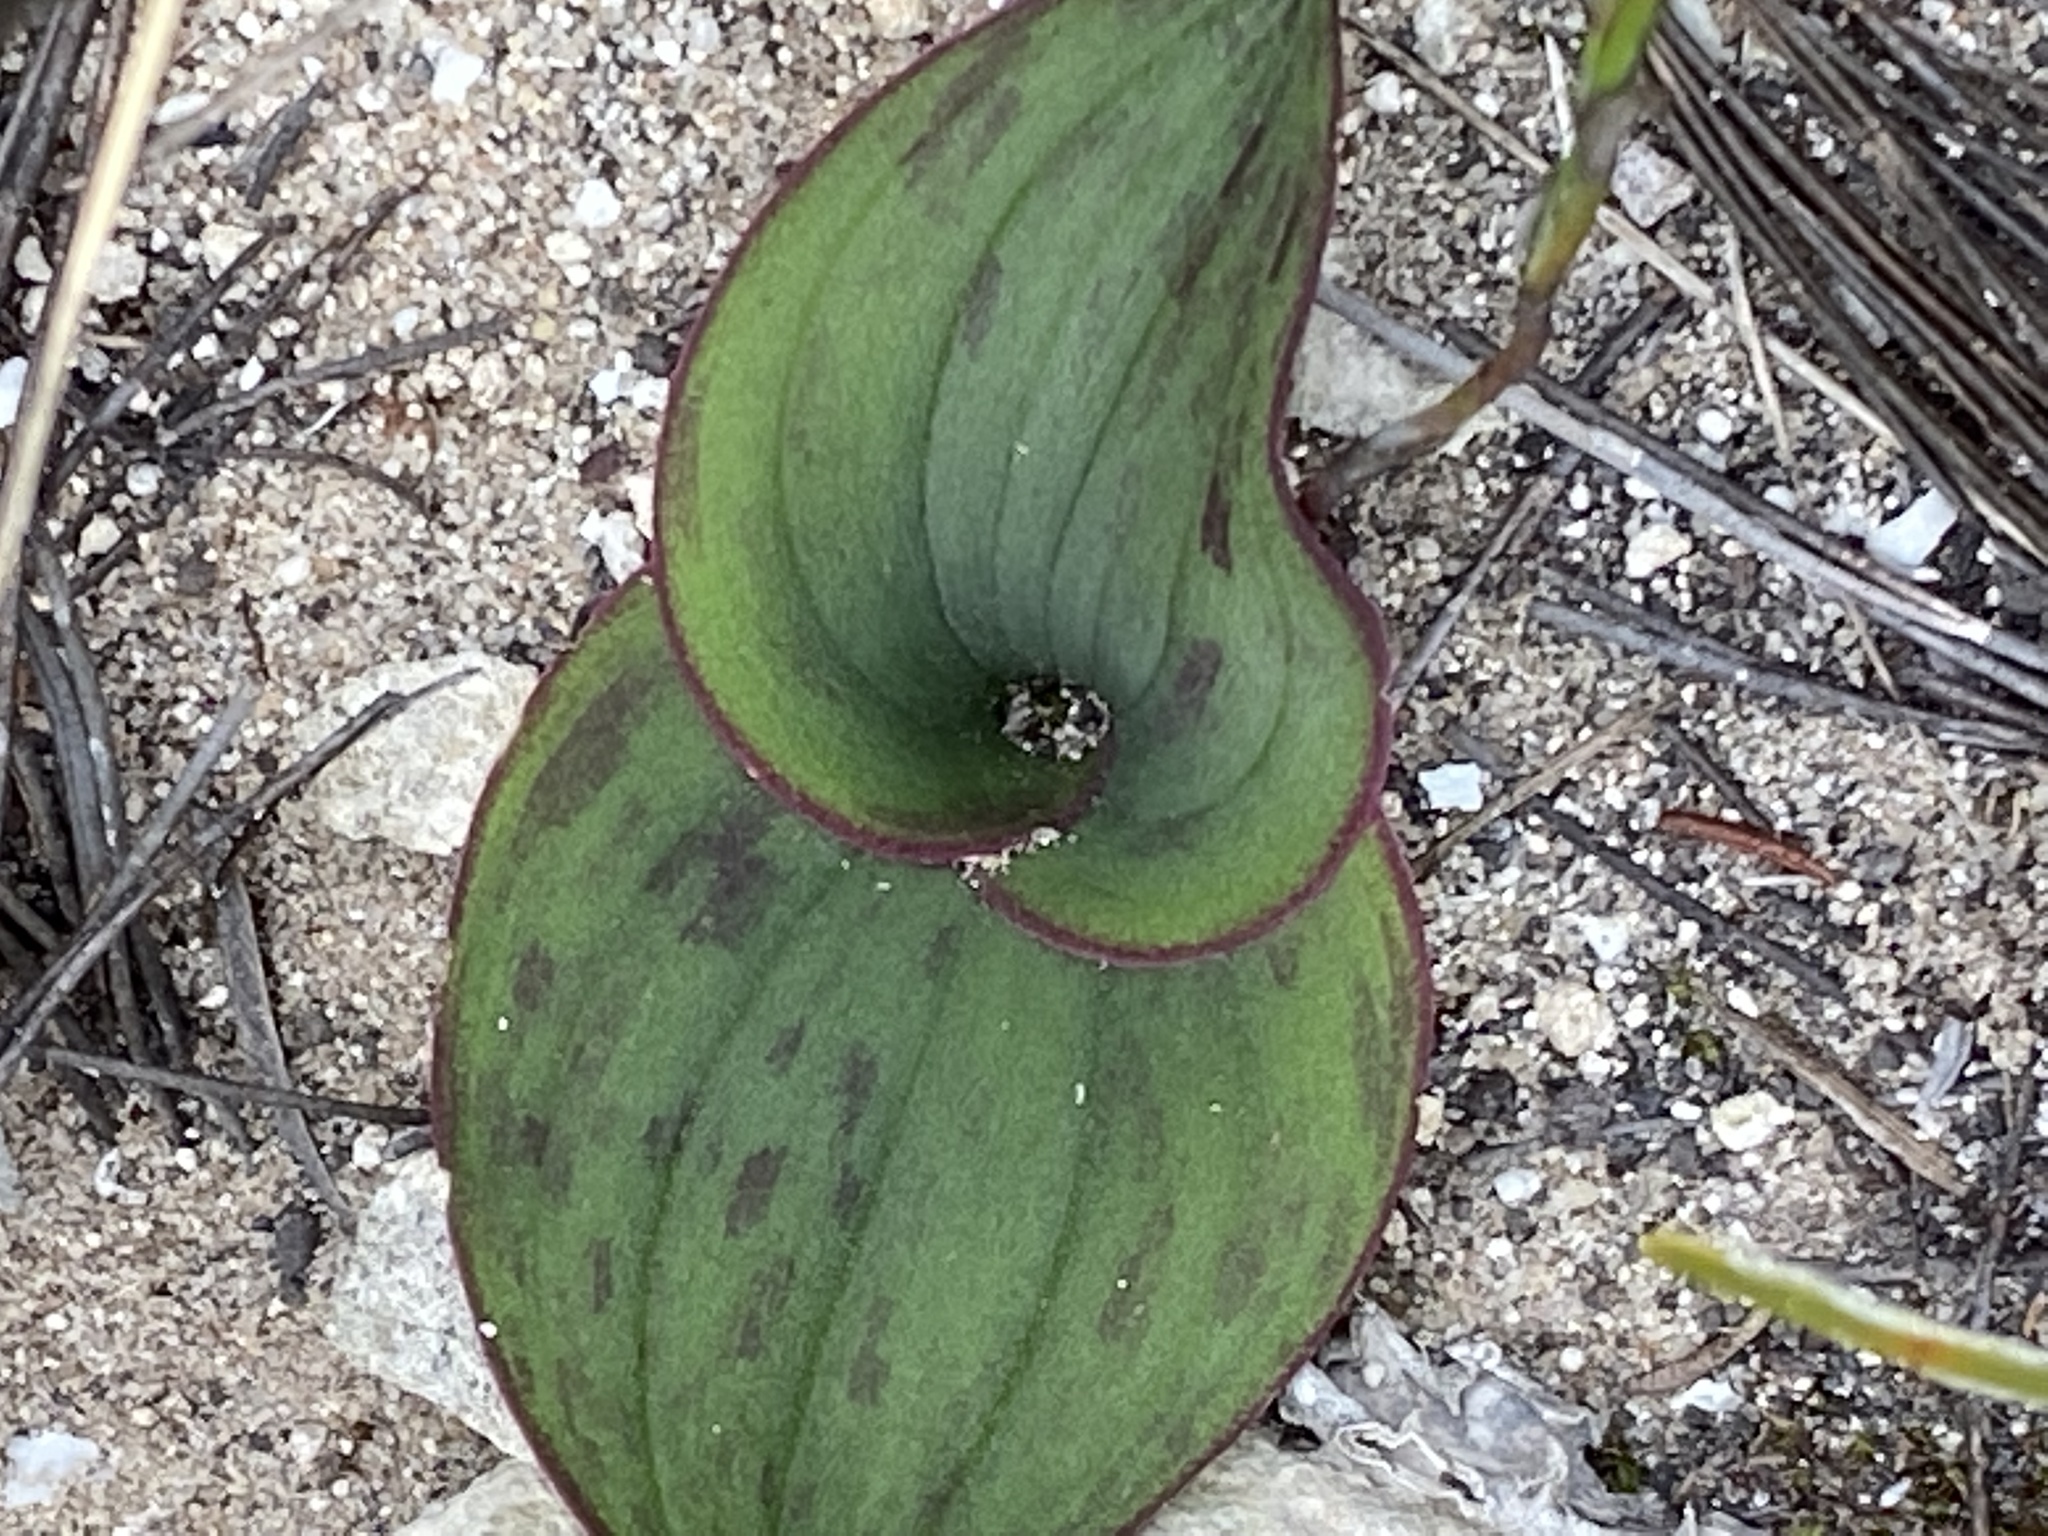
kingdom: Plantae
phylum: Tracheophyta
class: Liliopsida
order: Asparagales
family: Asparagaceae
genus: Massonia
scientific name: Massonia longipes
